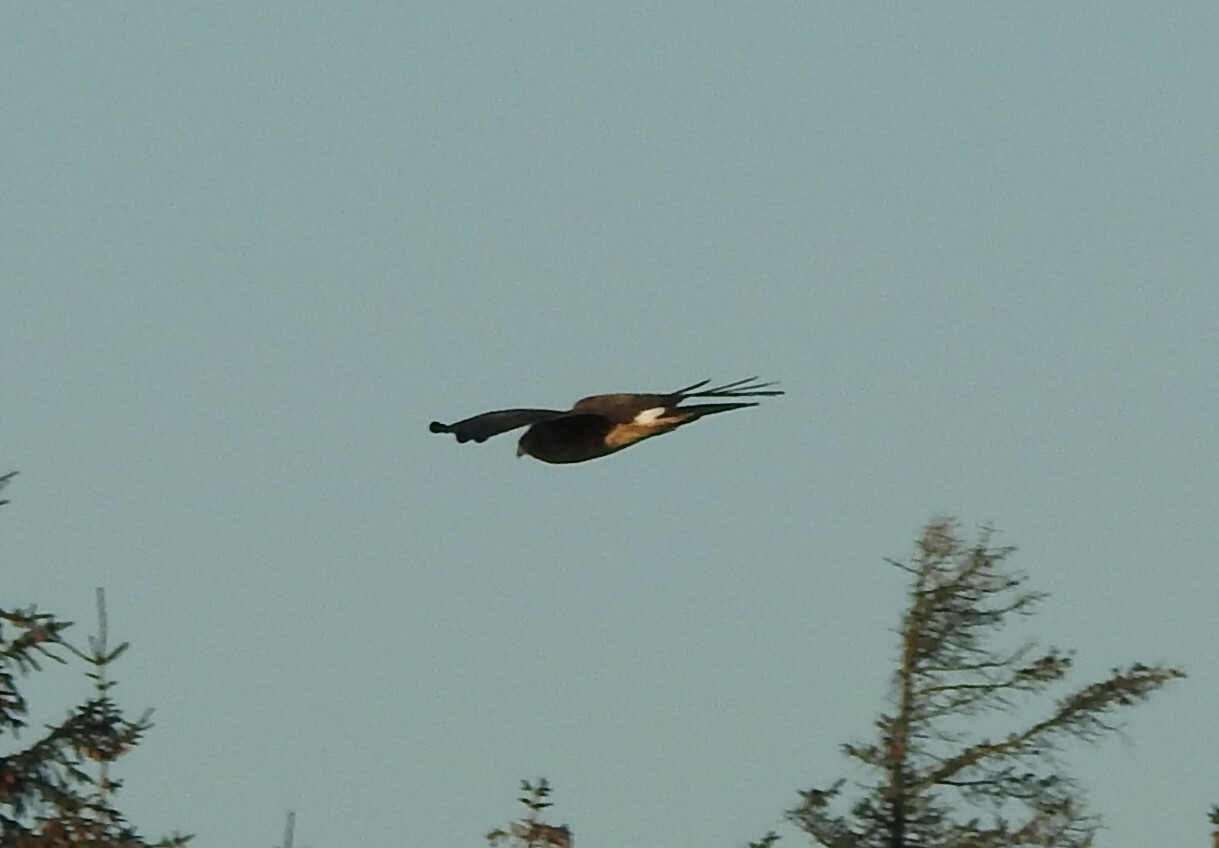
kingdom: Animalia
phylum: Chordata
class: Aves
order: Accipitriformes
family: Accipitridae
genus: Circus
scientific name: Circus cyaneus
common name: Hen harrier
